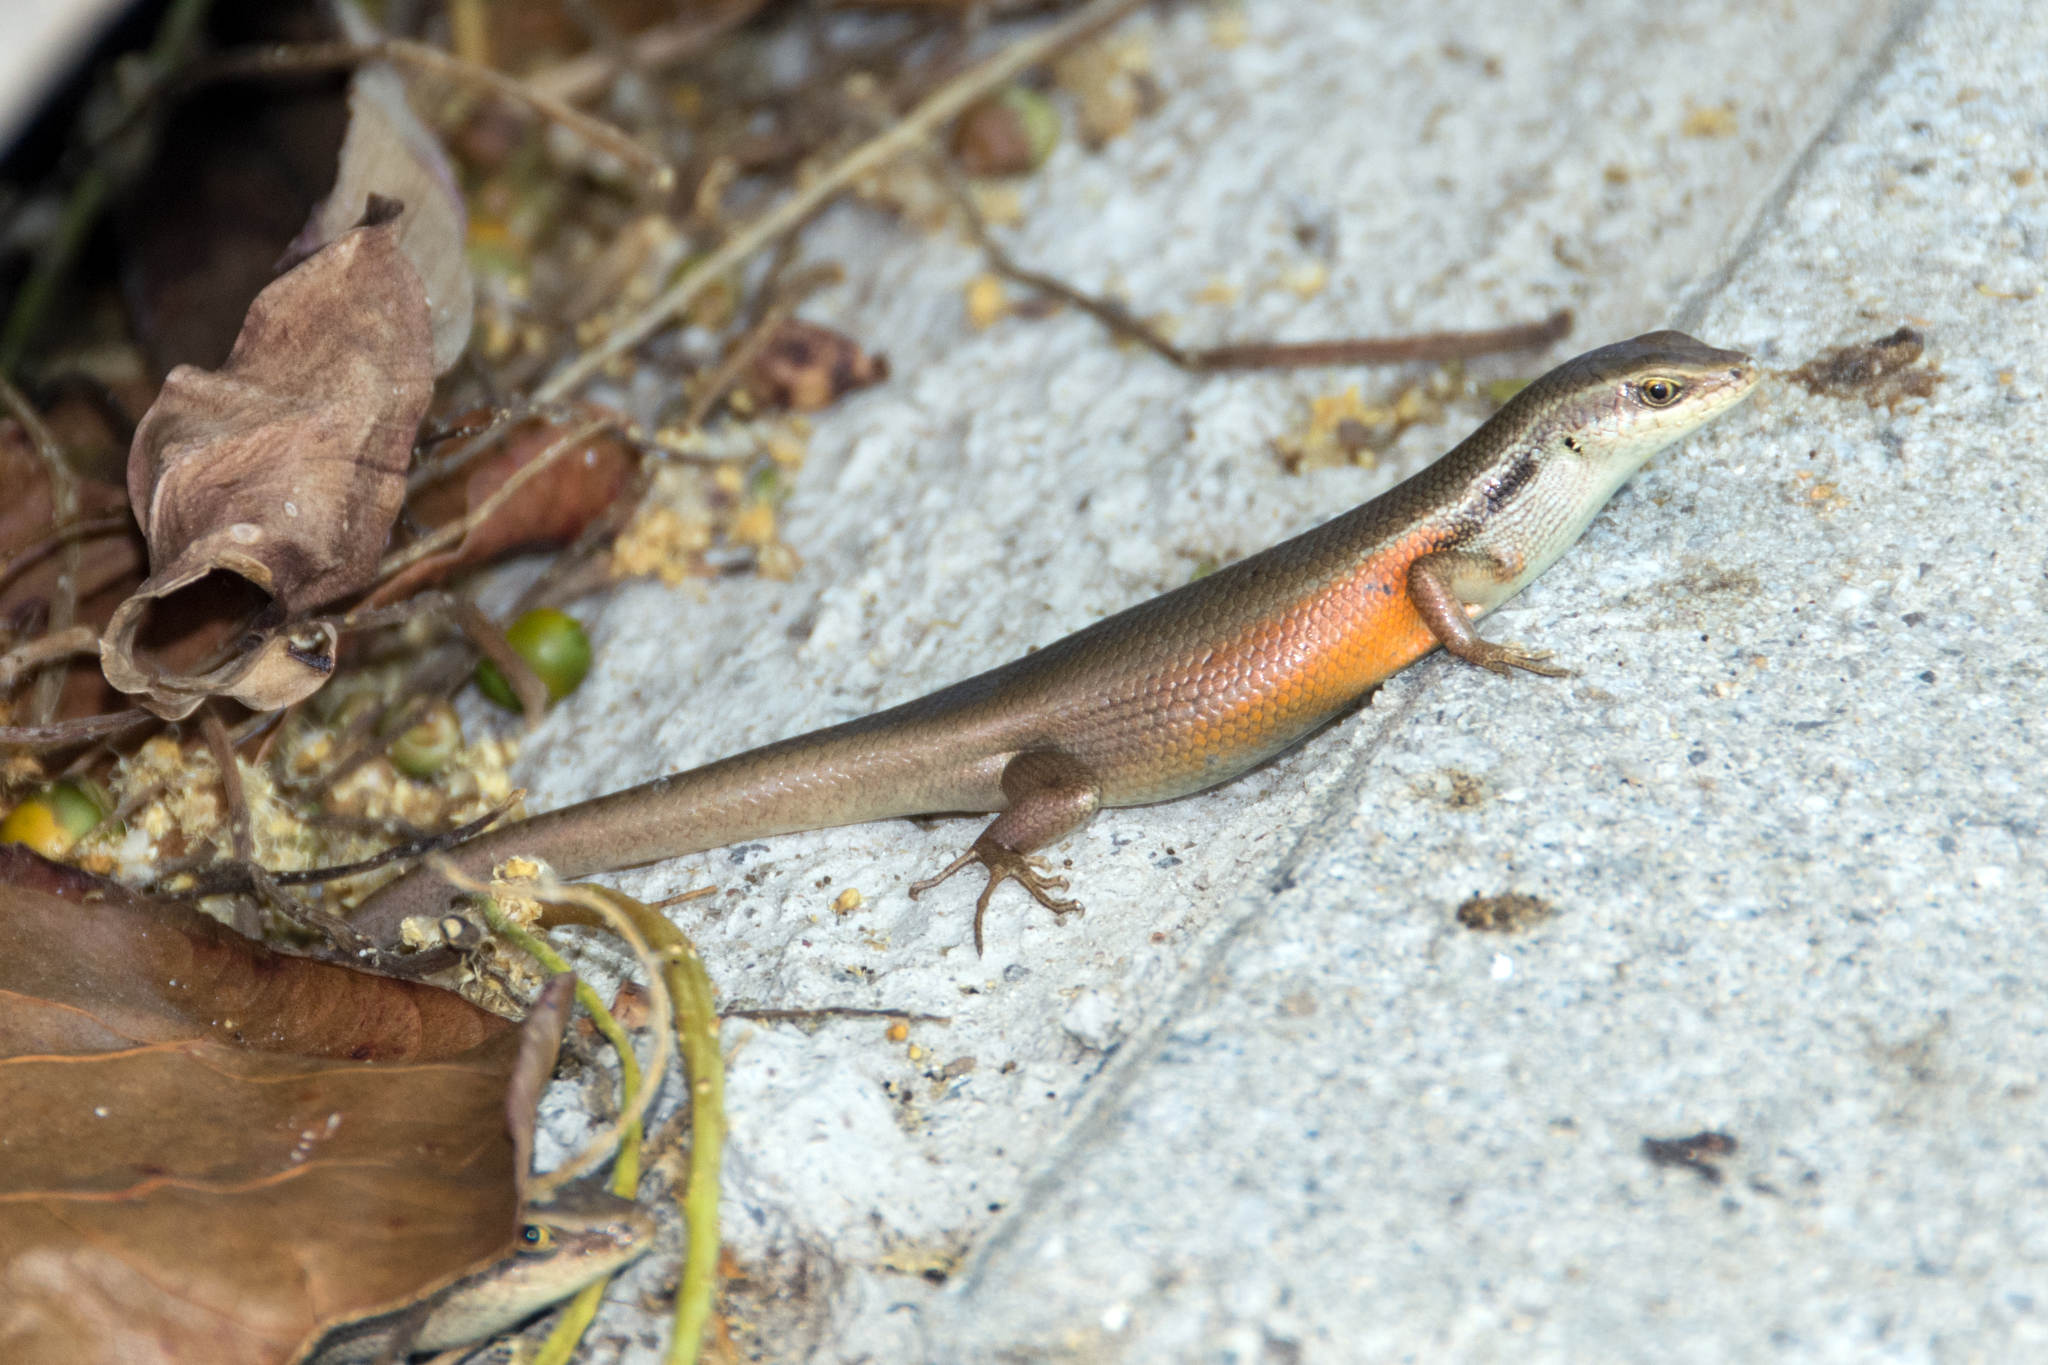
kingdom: Animalia
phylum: Chordata
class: Squamata
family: Scincidae
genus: Carlia
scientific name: Carlia longipes
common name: Closed-litter rainbow-skink
